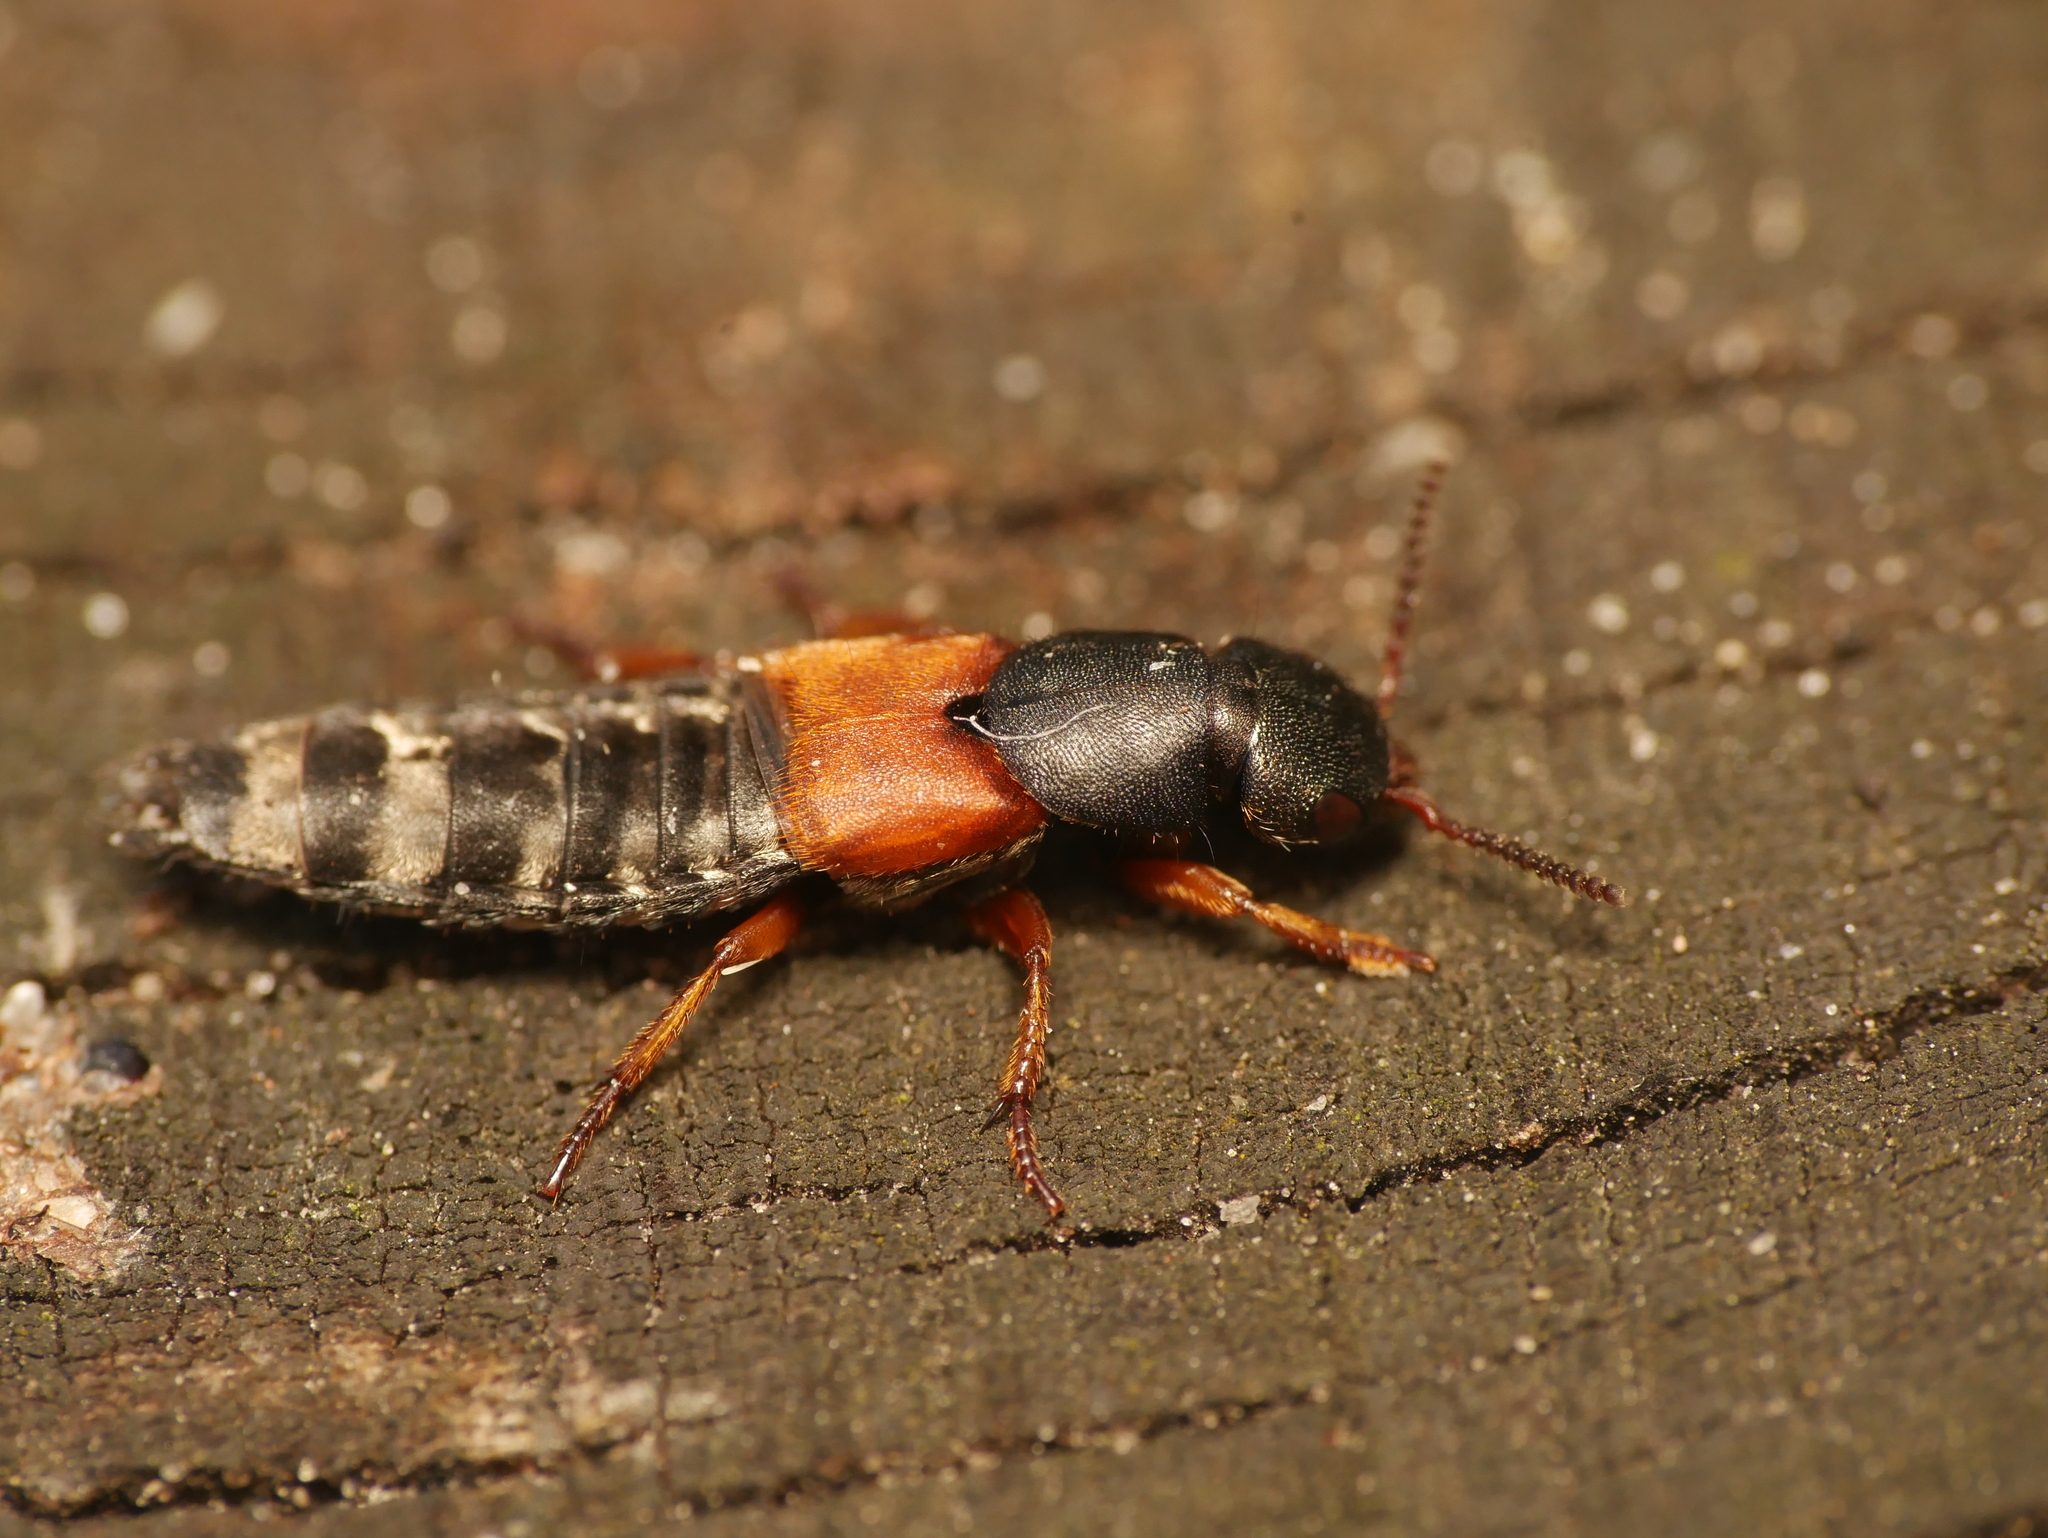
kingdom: Animalia
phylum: Arthropoda
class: Insecta
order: Coleoptera
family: Staphylinidae
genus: Platydracus
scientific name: Platydracus stercorarius
